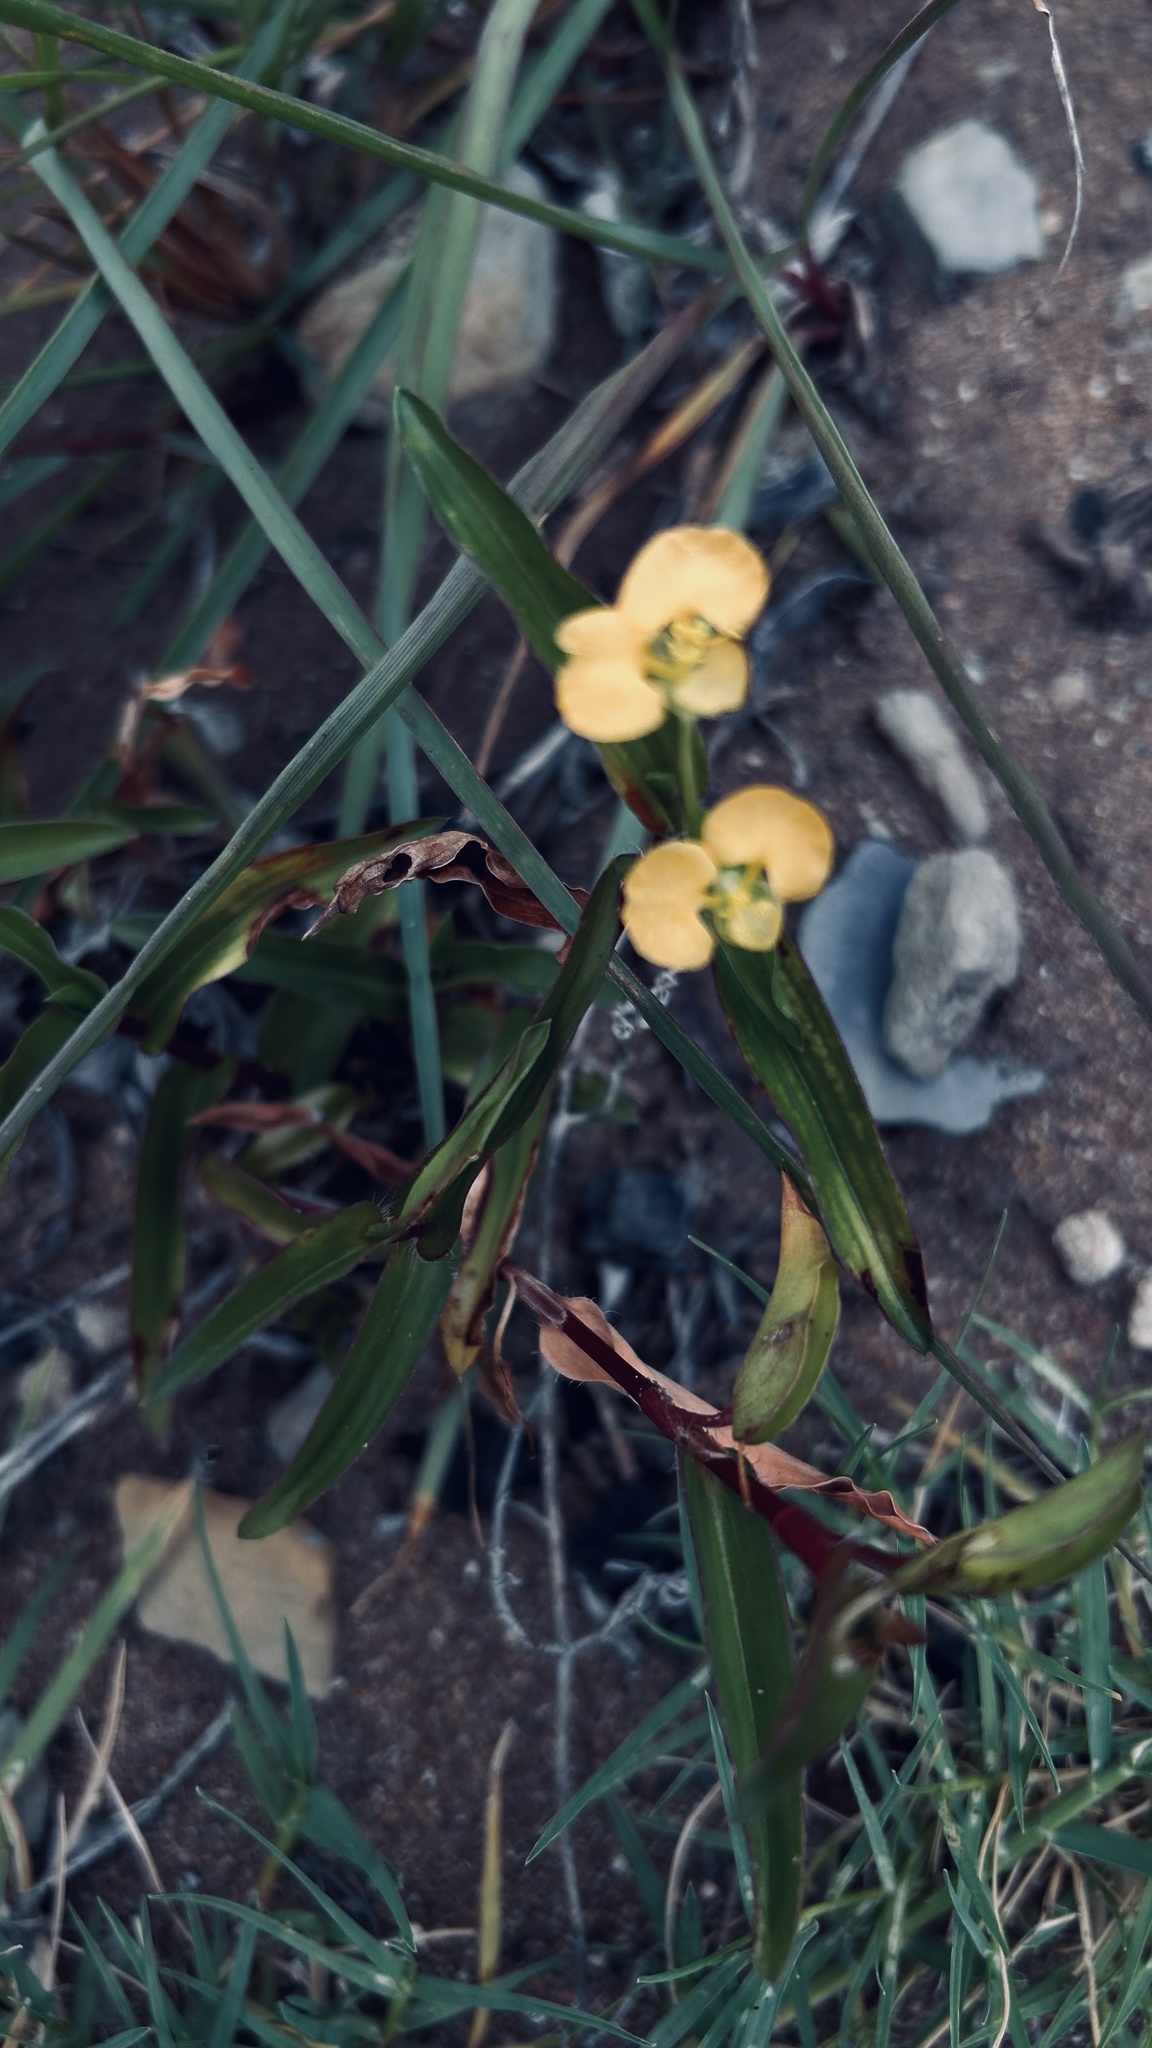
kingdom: Plantae
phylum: Tracheophyta
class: Liliopsida
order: Commelinales
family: Commelinaceae
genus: Commelina
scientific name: Commelina africana
